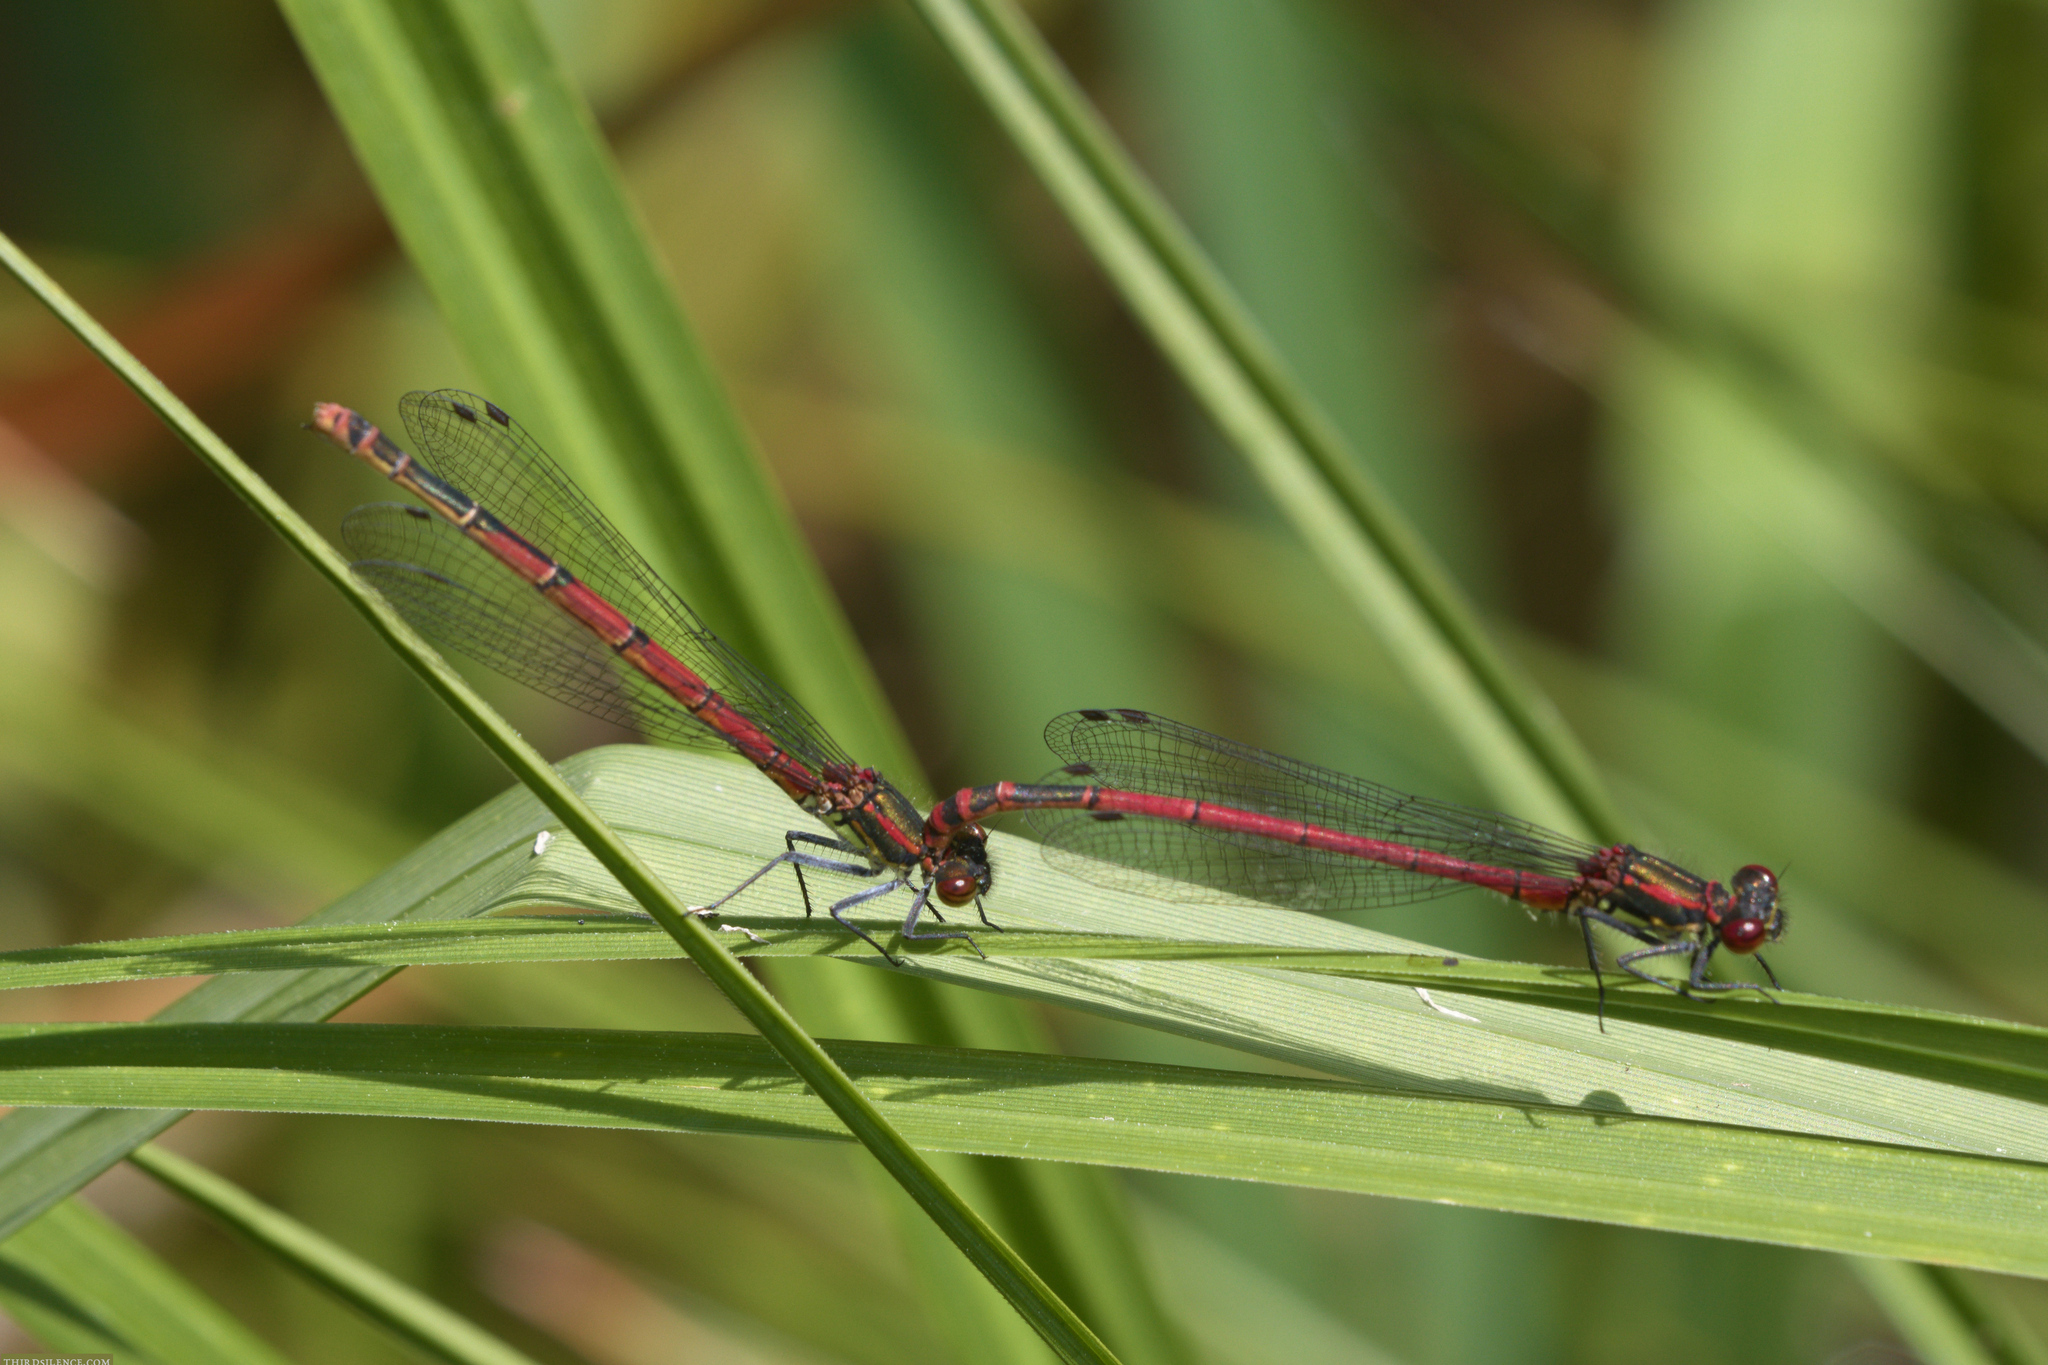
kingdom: Animalia
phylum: Arthropoda
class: Insecta
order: Odonata
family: Coenagrionidae
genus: Pyrrhosoma
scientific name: Pyrrhosoma nymphula
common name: Large red damsel
